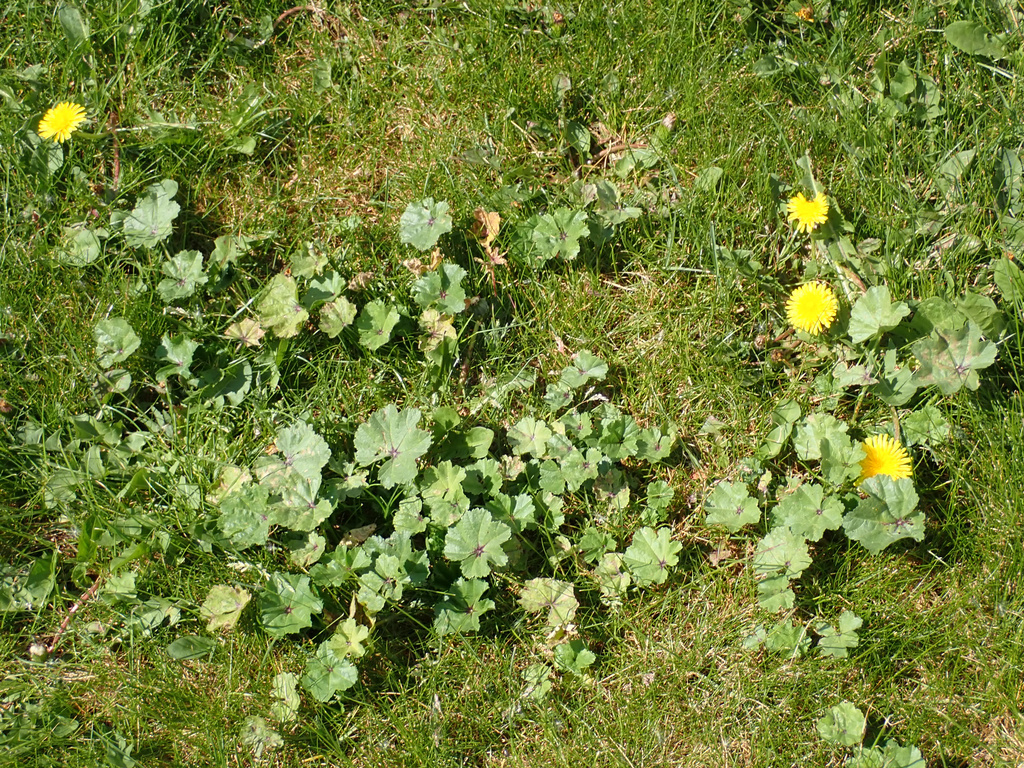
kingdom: Plantae
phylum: Tracheophyta
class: Magnoliopsida
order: Malvales
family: Malvaceae
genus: Malva
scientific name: Malva sylvestris
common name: Common mallow
